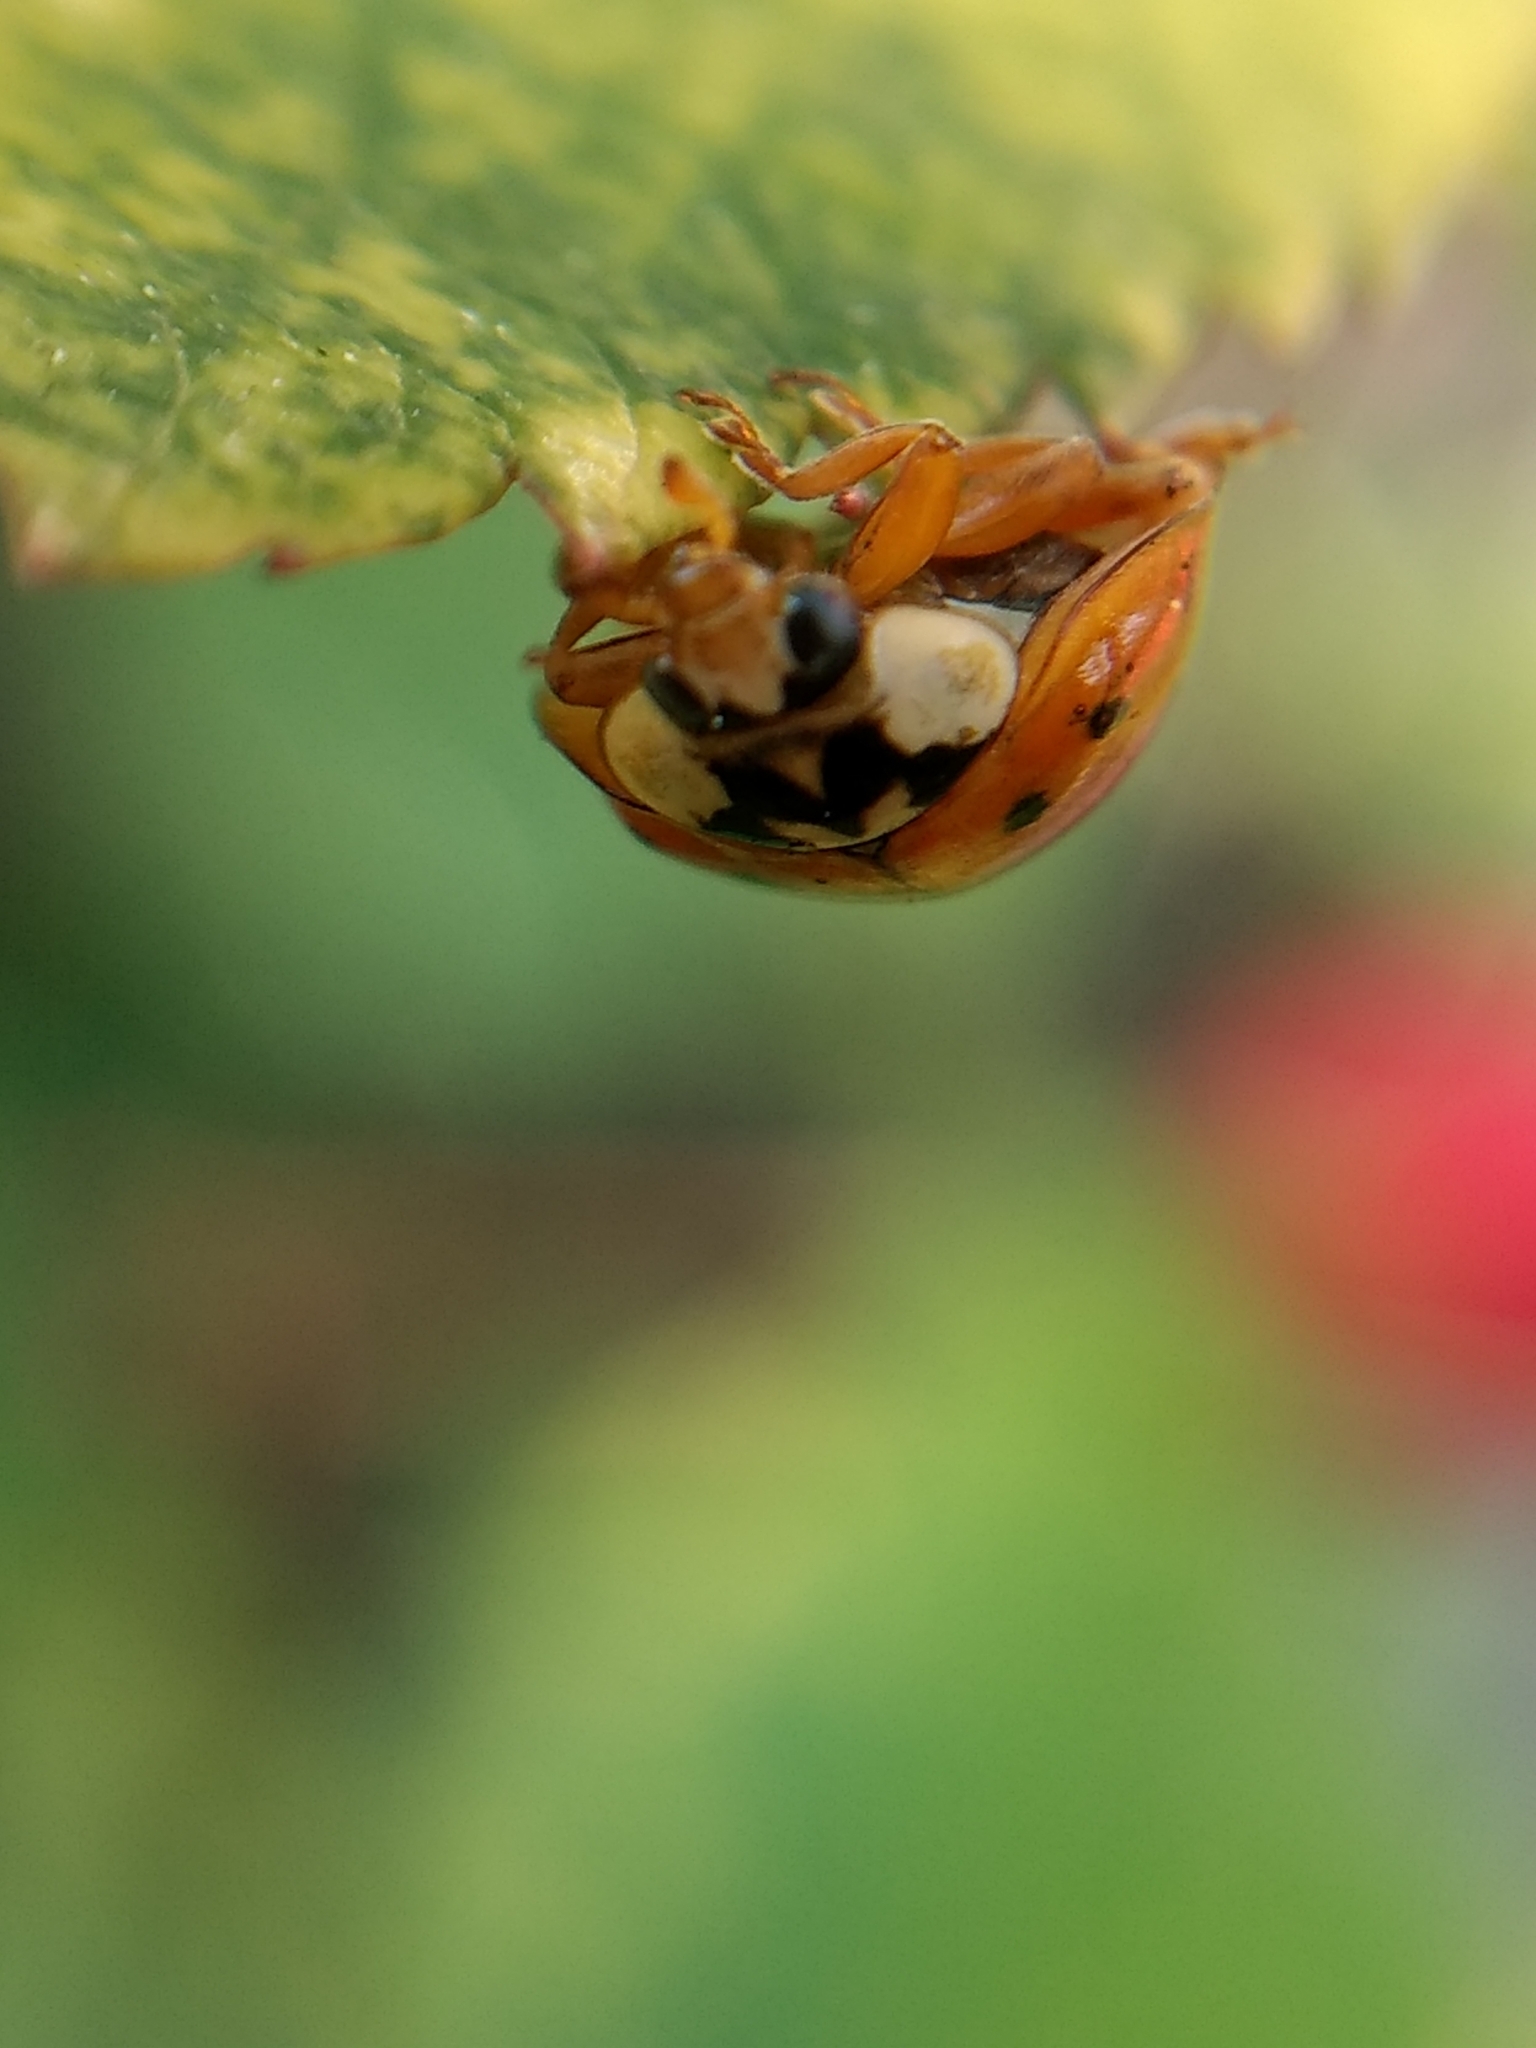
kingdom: Animalia
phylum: Arthropoda
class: Insecta
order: Coleoptera
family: Coccinellidae
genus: Harmonia
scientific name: Harmonia axyridis
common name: Harlequin ladybird
